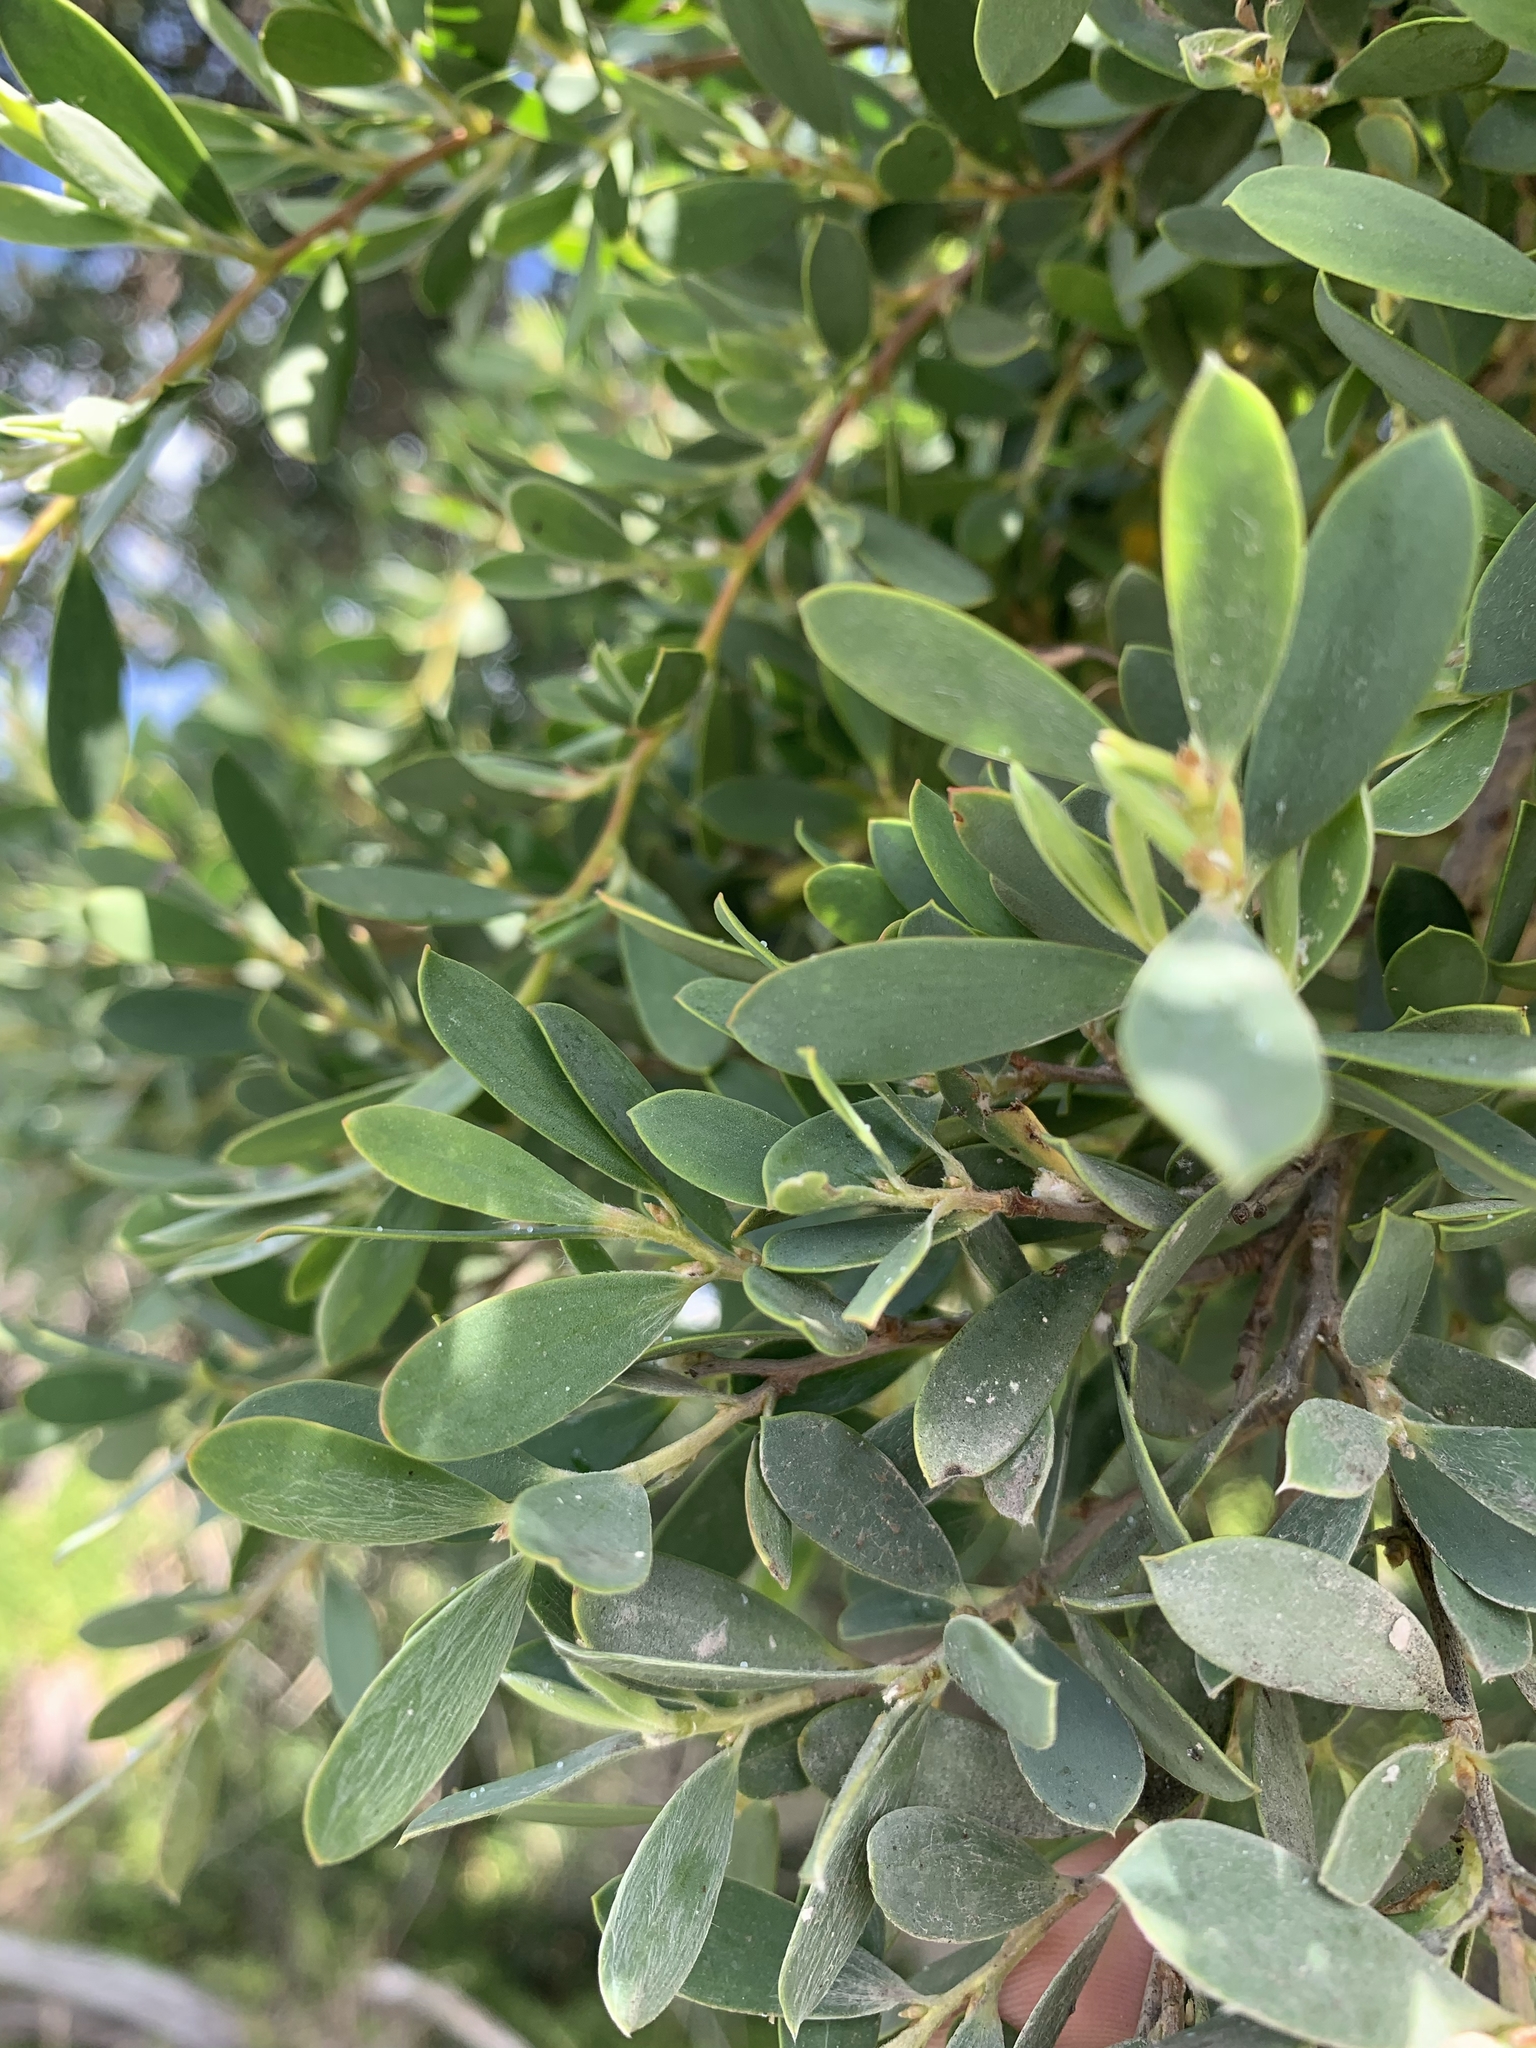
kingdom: Plantae
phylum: Tracheophyta
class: Magnoliopsida
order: Myrtales
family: Myrtaceae
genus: Leptospermum
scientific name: Leptospermum laevigatum
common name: Australian teatree
